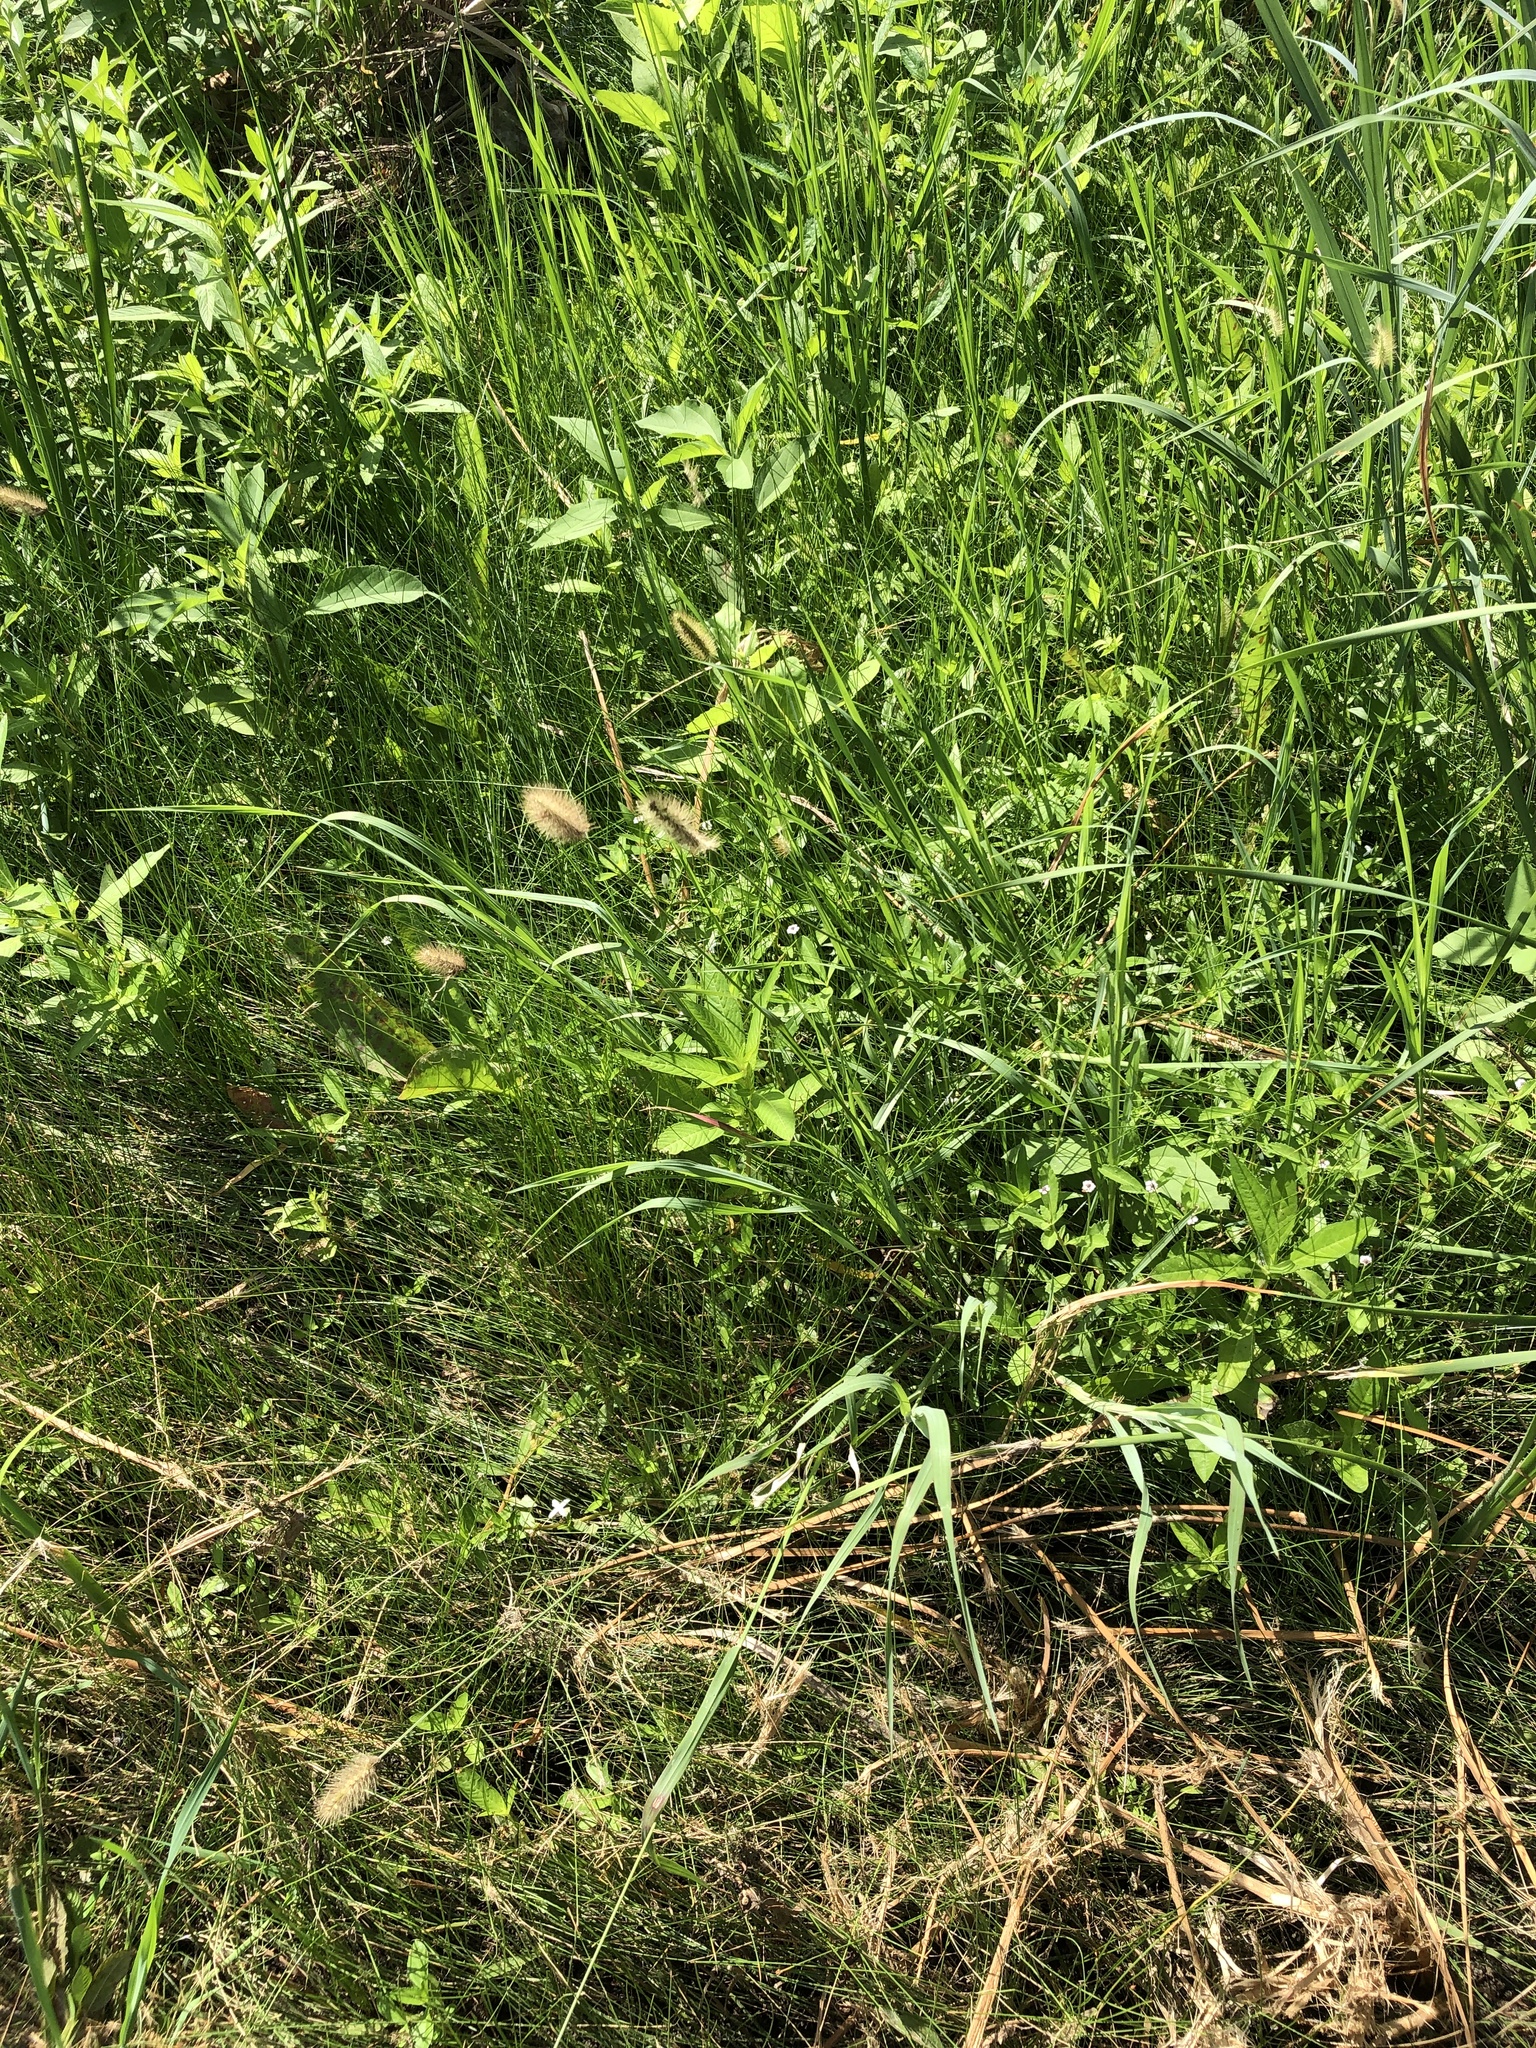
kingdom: Plantae
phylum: Tracheophyta
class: Liliopsida
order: Poales
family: Poaceae
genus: Setaria
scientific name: Setaria parviflora
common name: Knotroot bristle-grass
